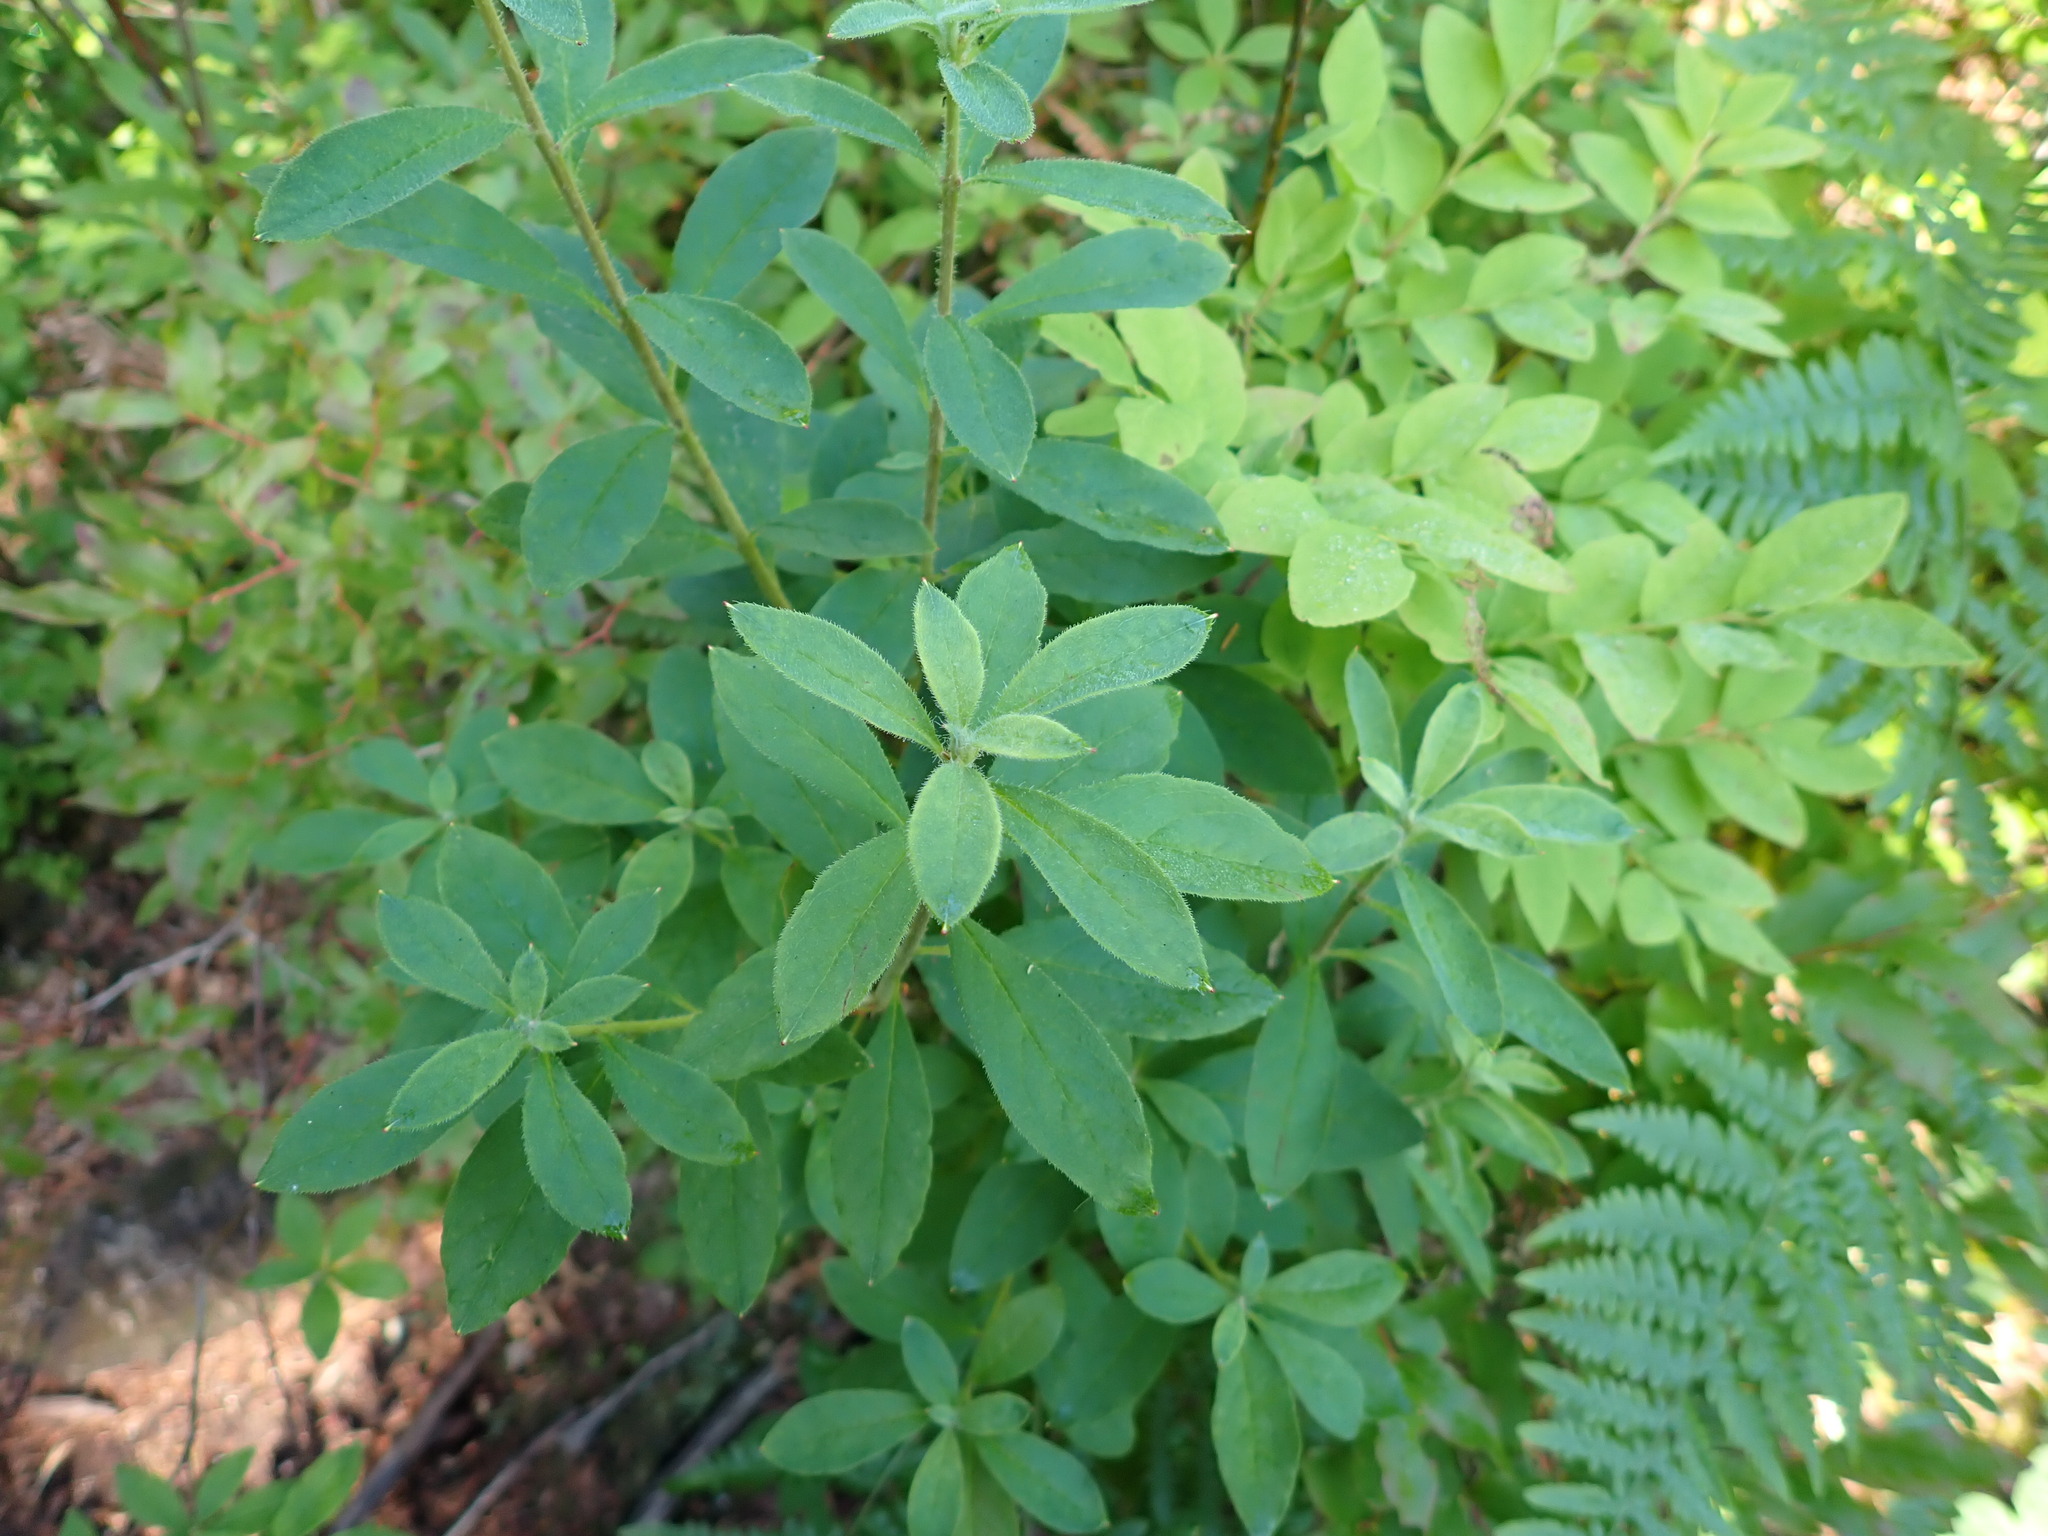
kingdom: Plantae
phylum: Tracheophyta
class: Magnoliopsida
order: Ericales
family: Ericaceae
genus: Rhododendron
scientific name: Rhododendron menziesii
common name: Pacific menziesia
